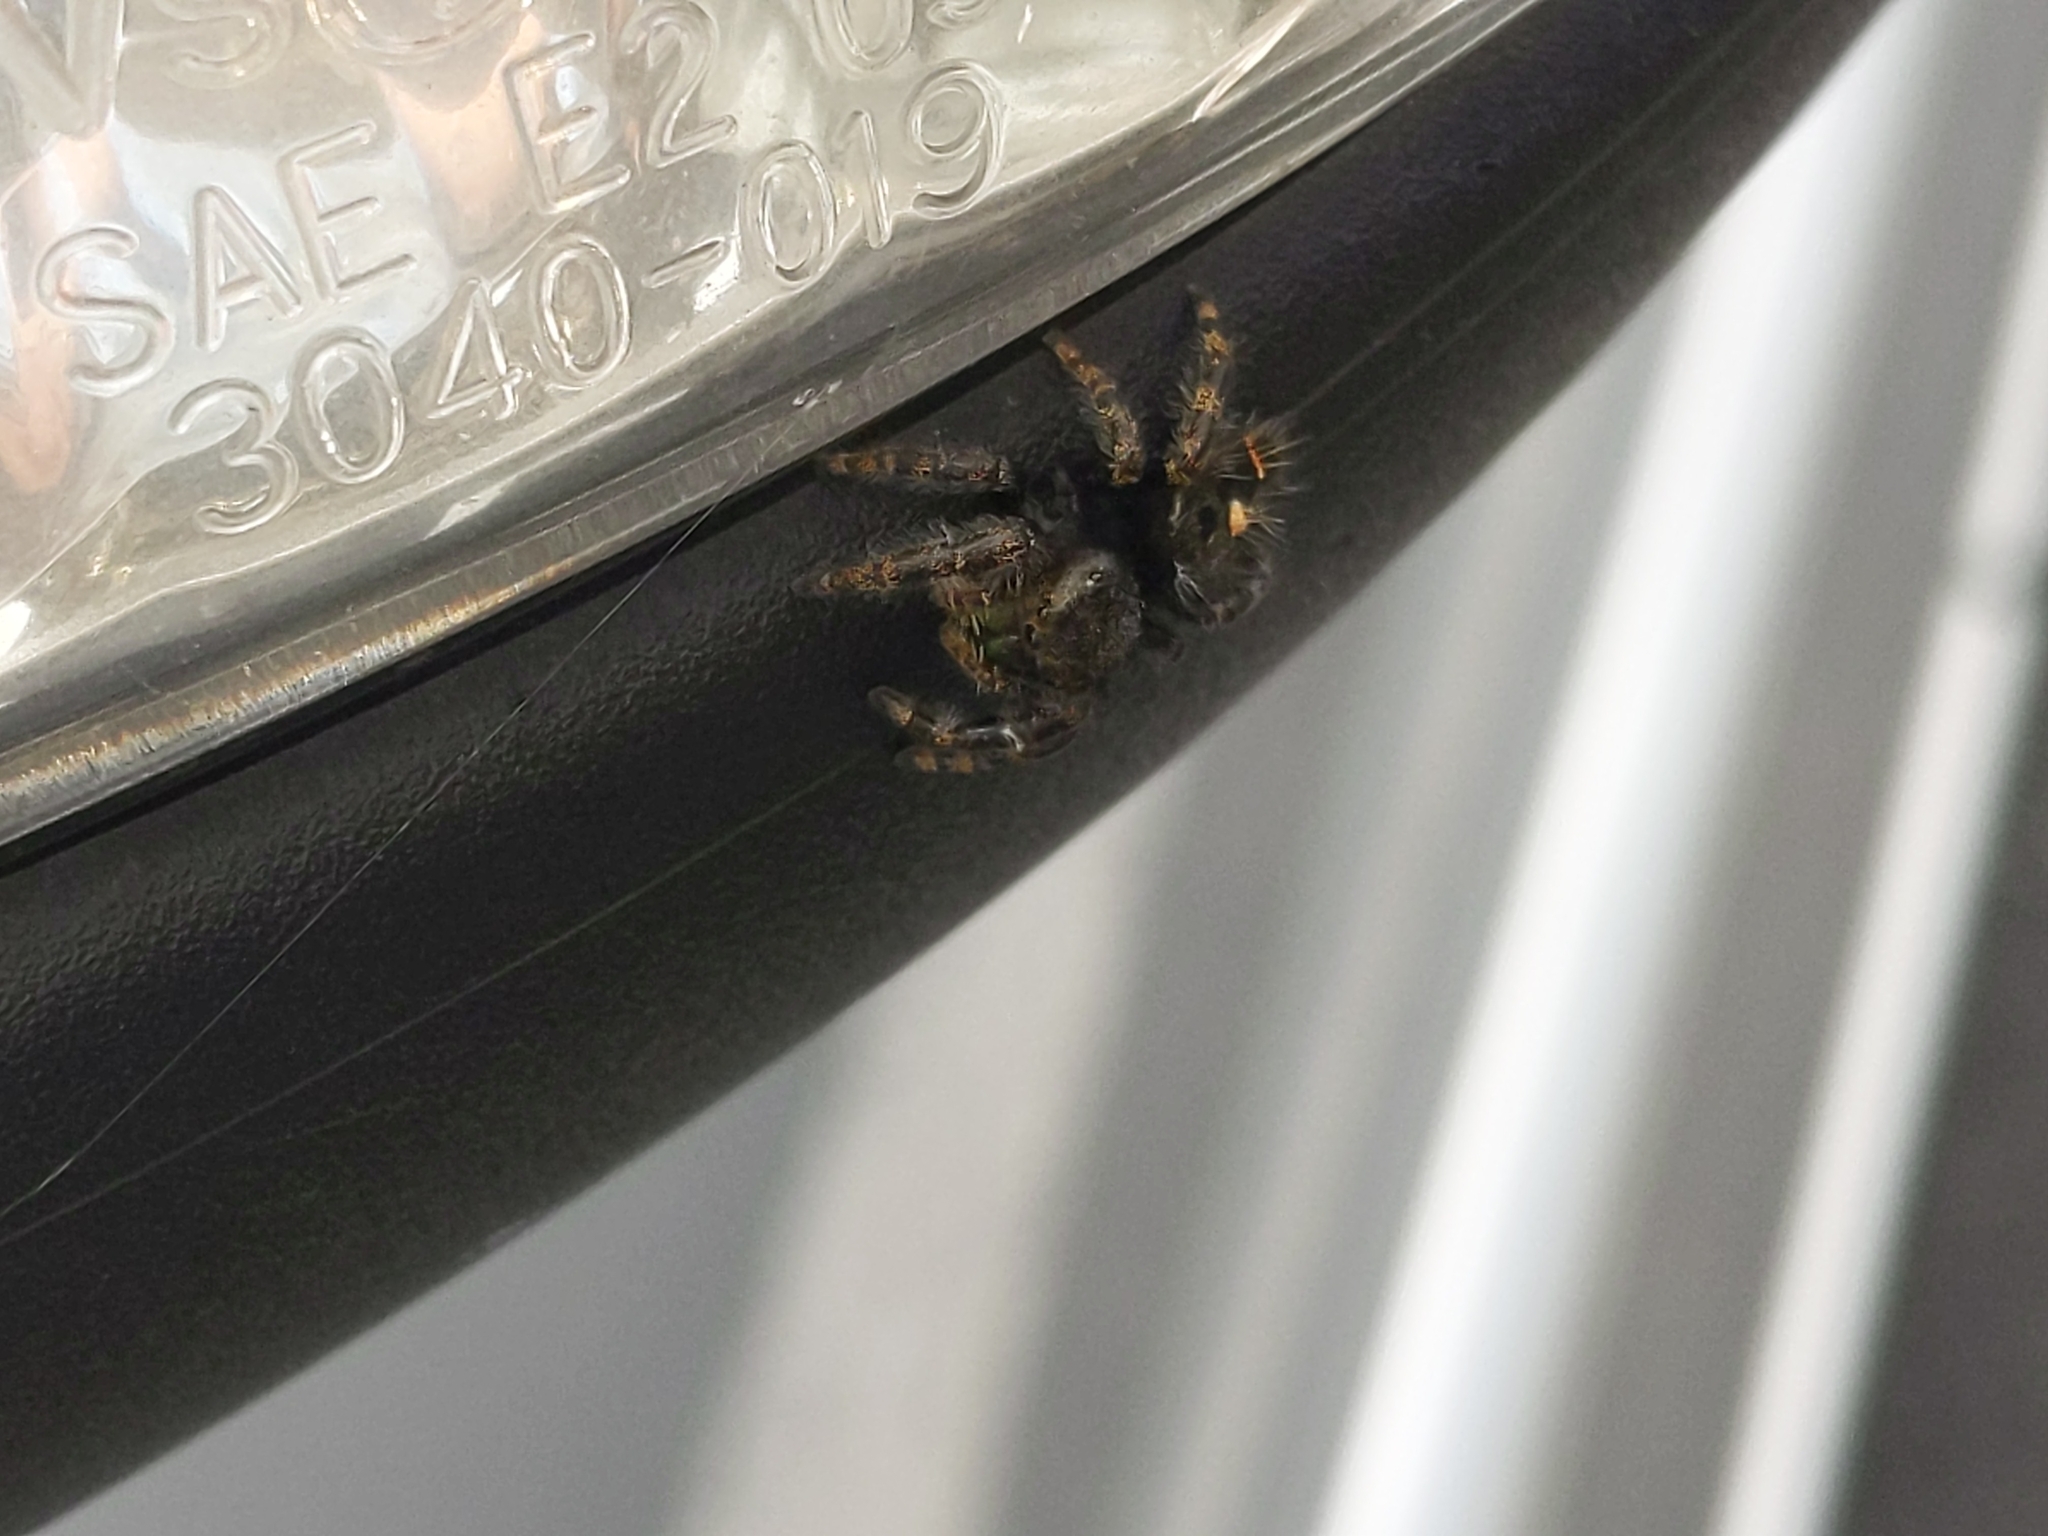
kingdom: Animalia
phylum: Arthropoda
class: Arachnida
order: Araneae
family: Salticidae
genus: Phidippus
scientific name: Phidippus audax
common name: Bold jumper
